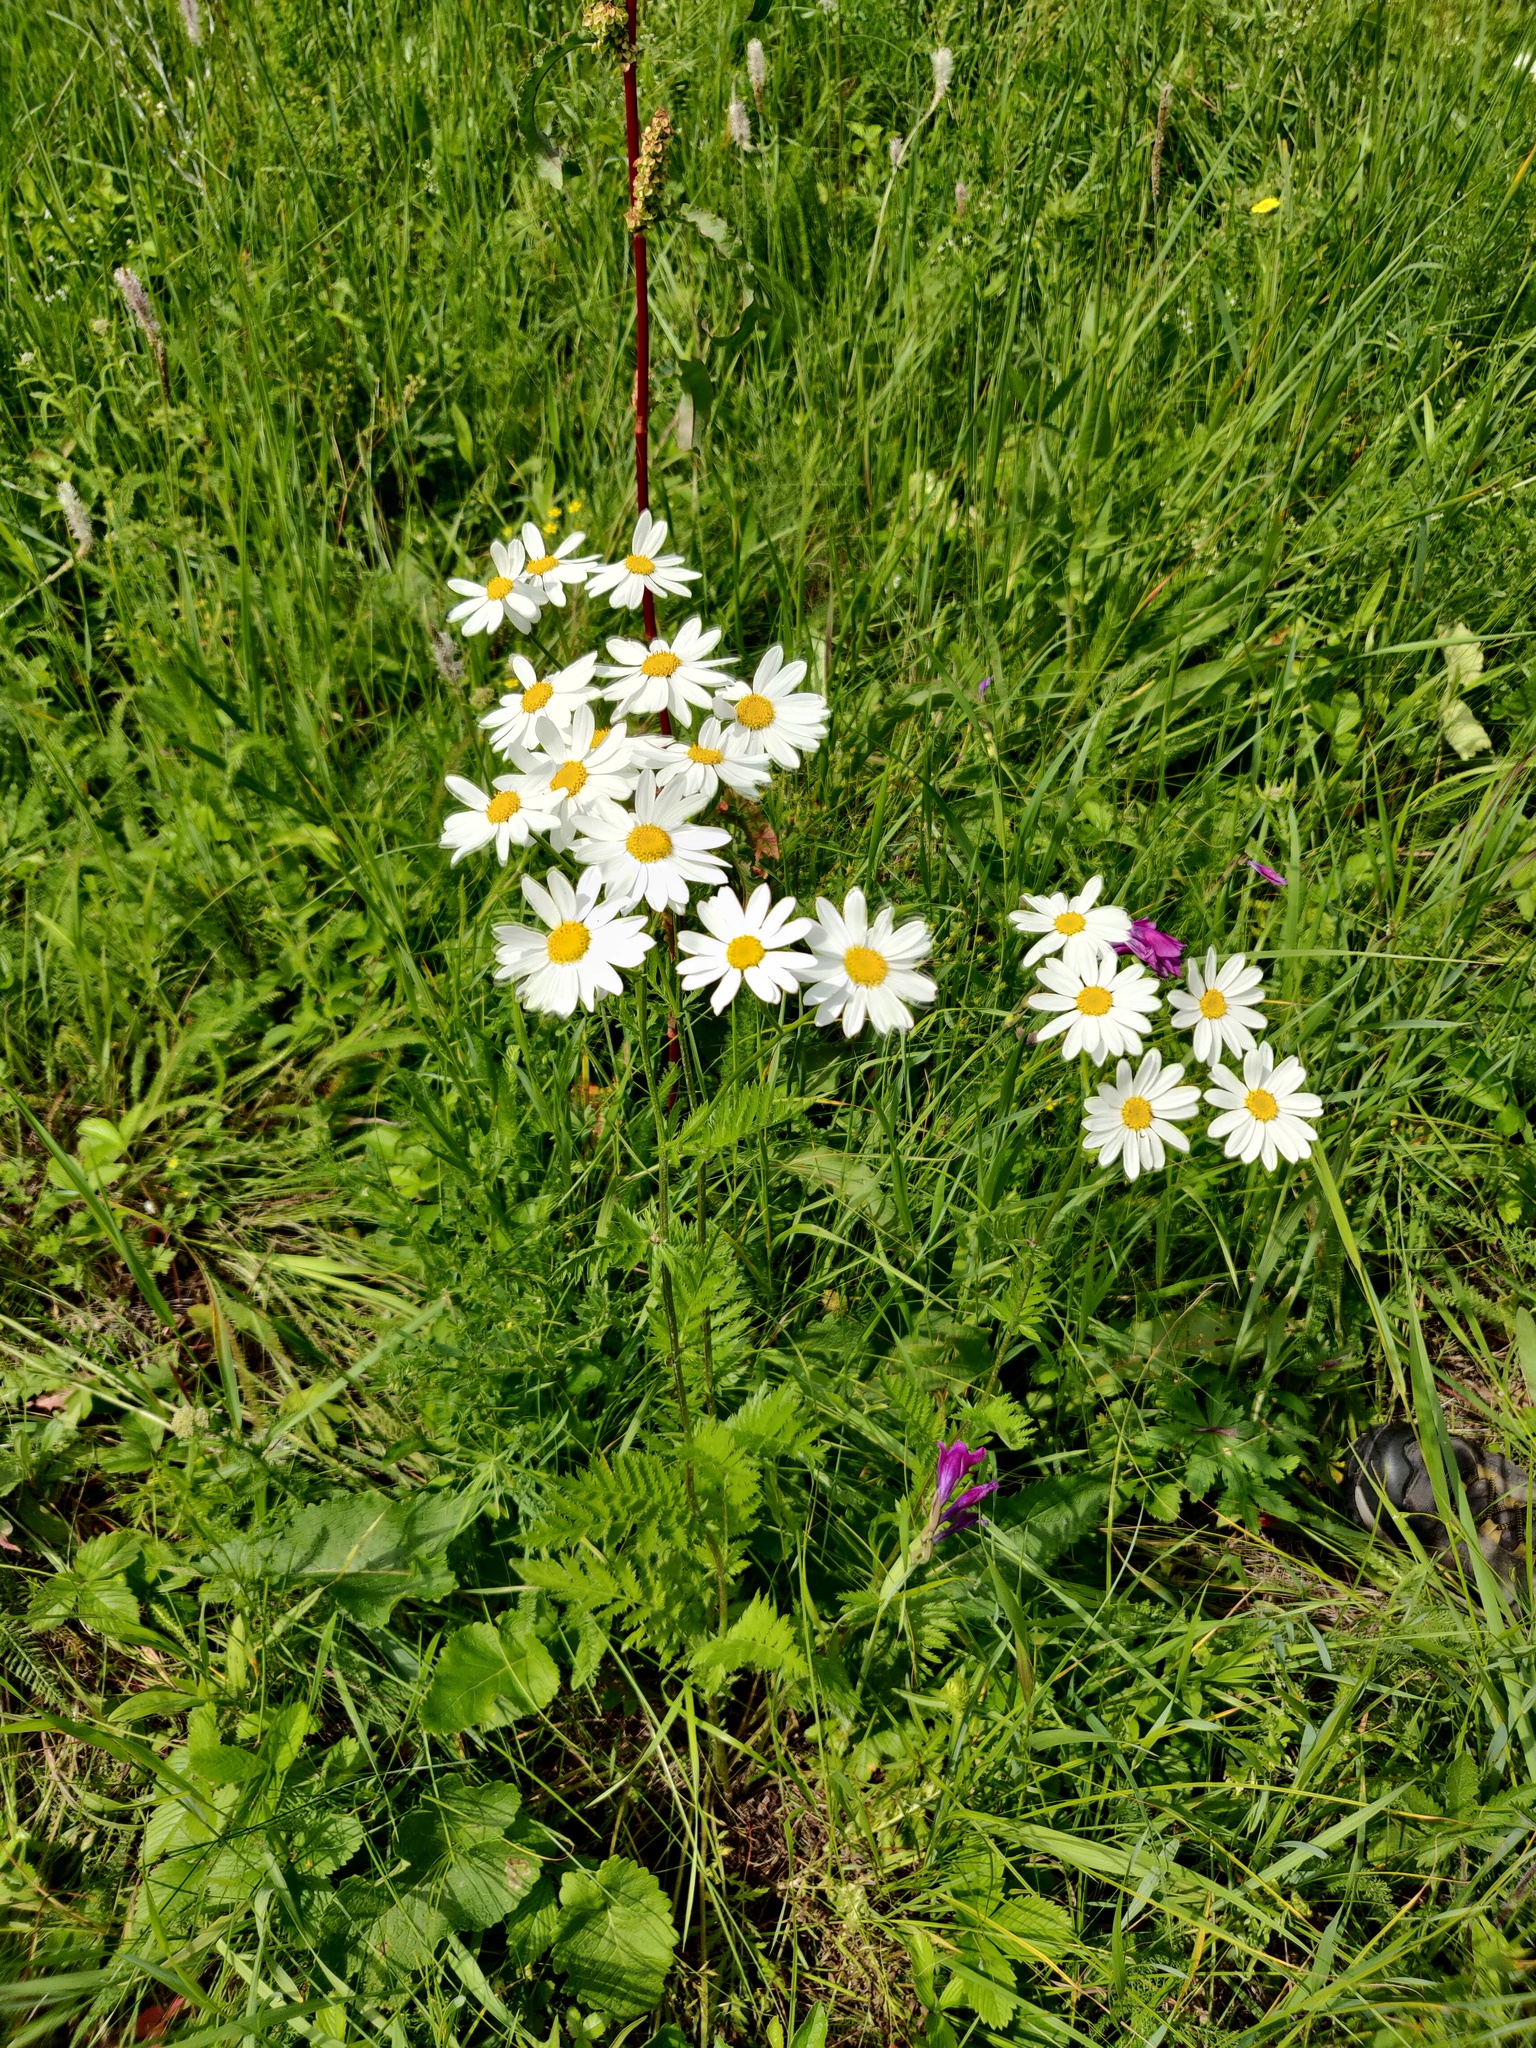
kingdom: Plantae
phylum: Tracheophyta
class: Magnoliopsida
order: Asterales
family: Asteraceae
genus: Tanacetum
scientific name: Tanacetum corymbosum
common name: Scentless feverfew
